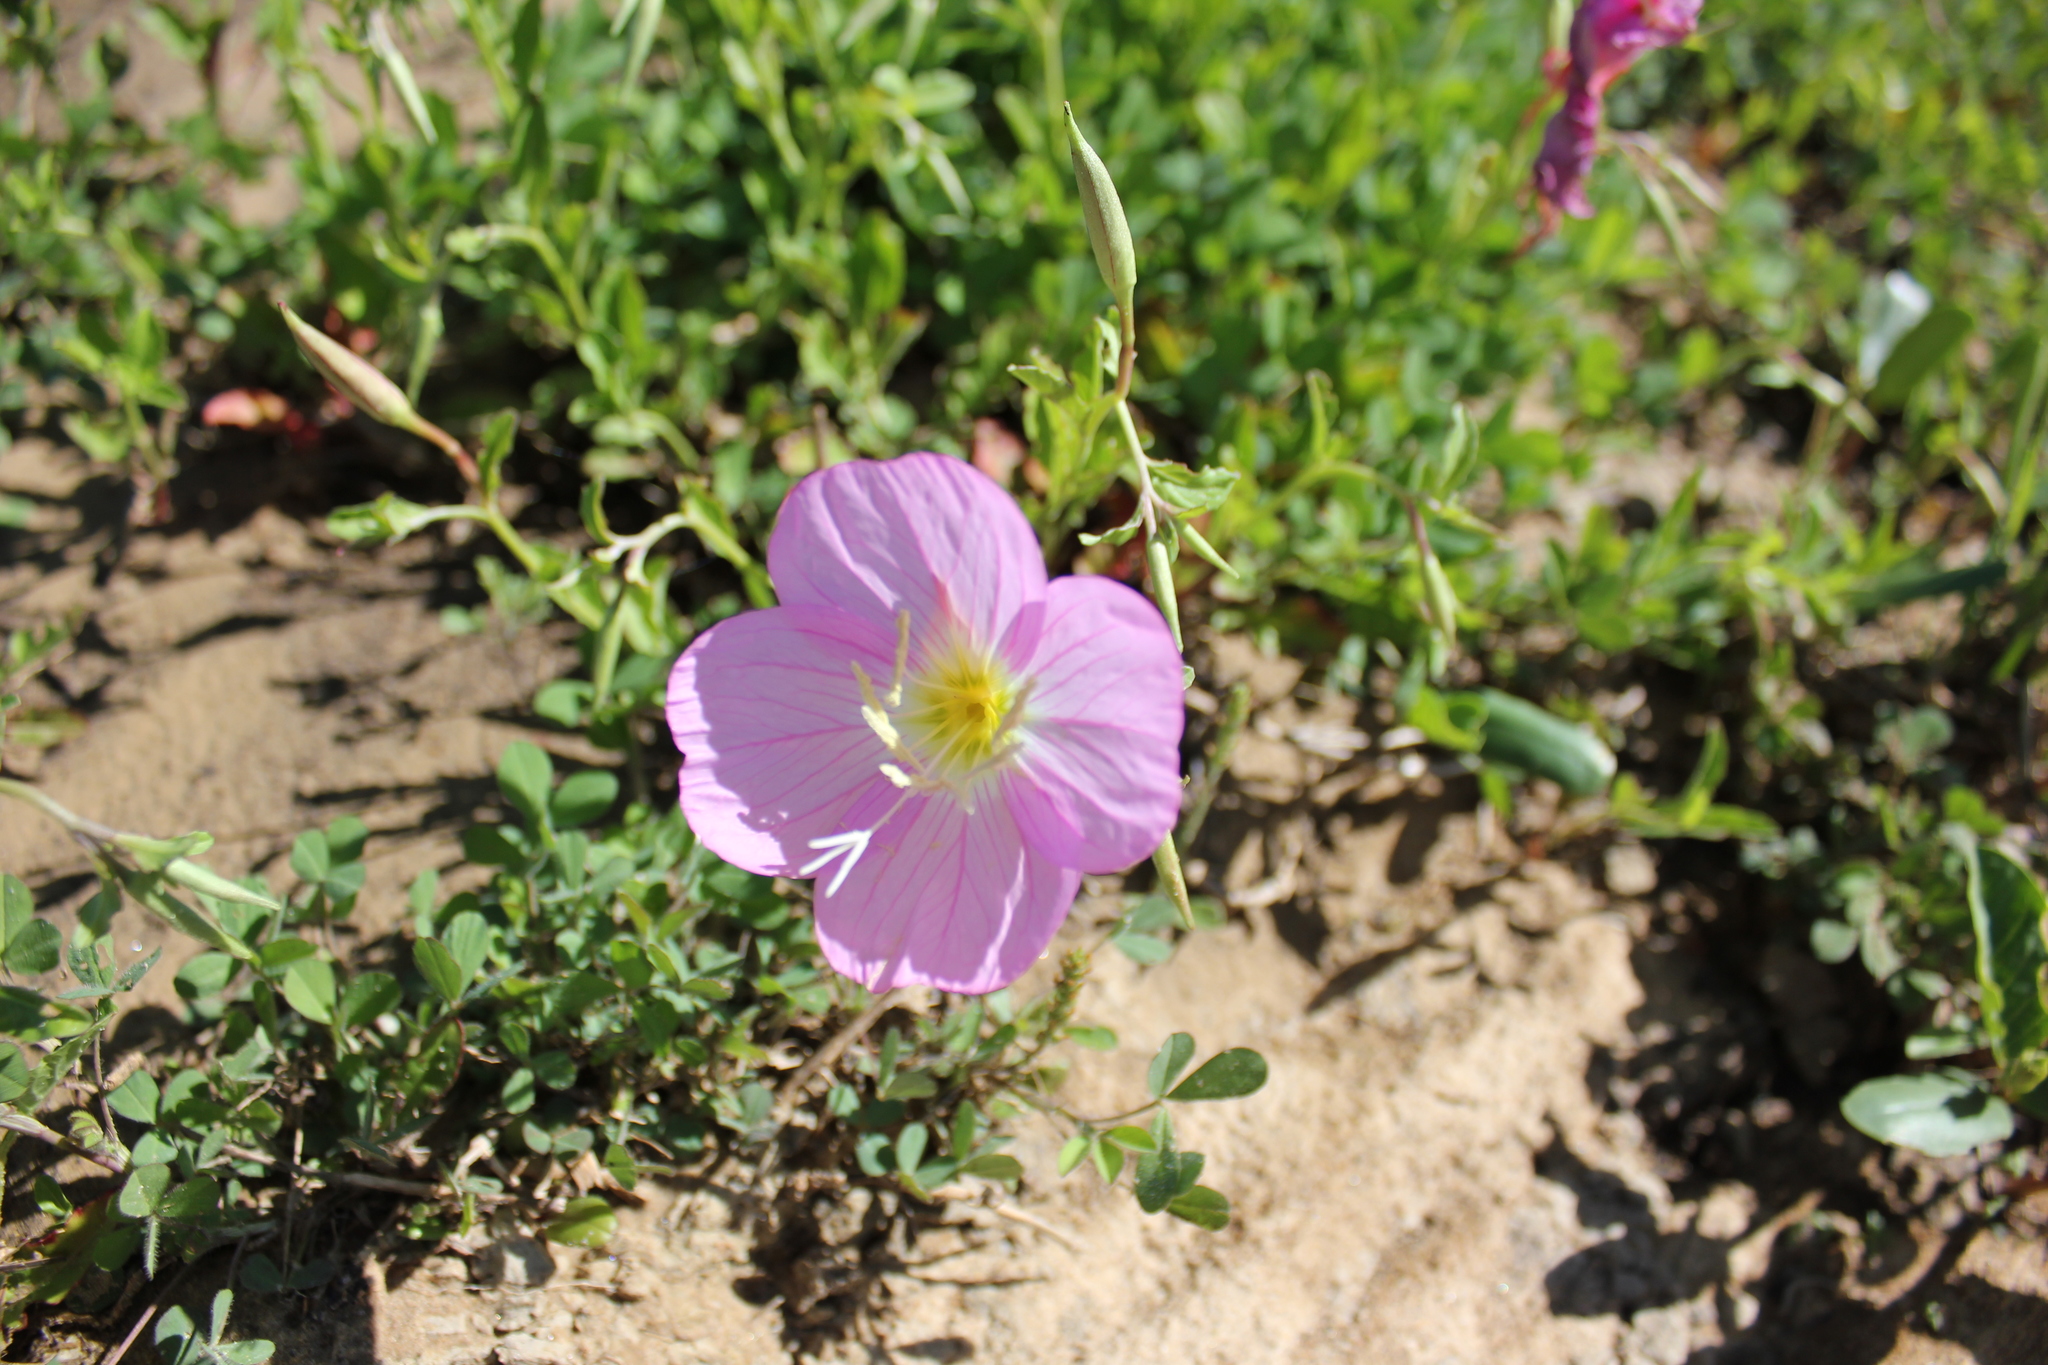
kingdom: Plantae
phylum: Tracheophyta
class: Magnoliopsida
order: Myrtales
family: Onagraceae
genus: Oenothera
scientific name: Oenothera speciosa
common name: White evening-primrose
